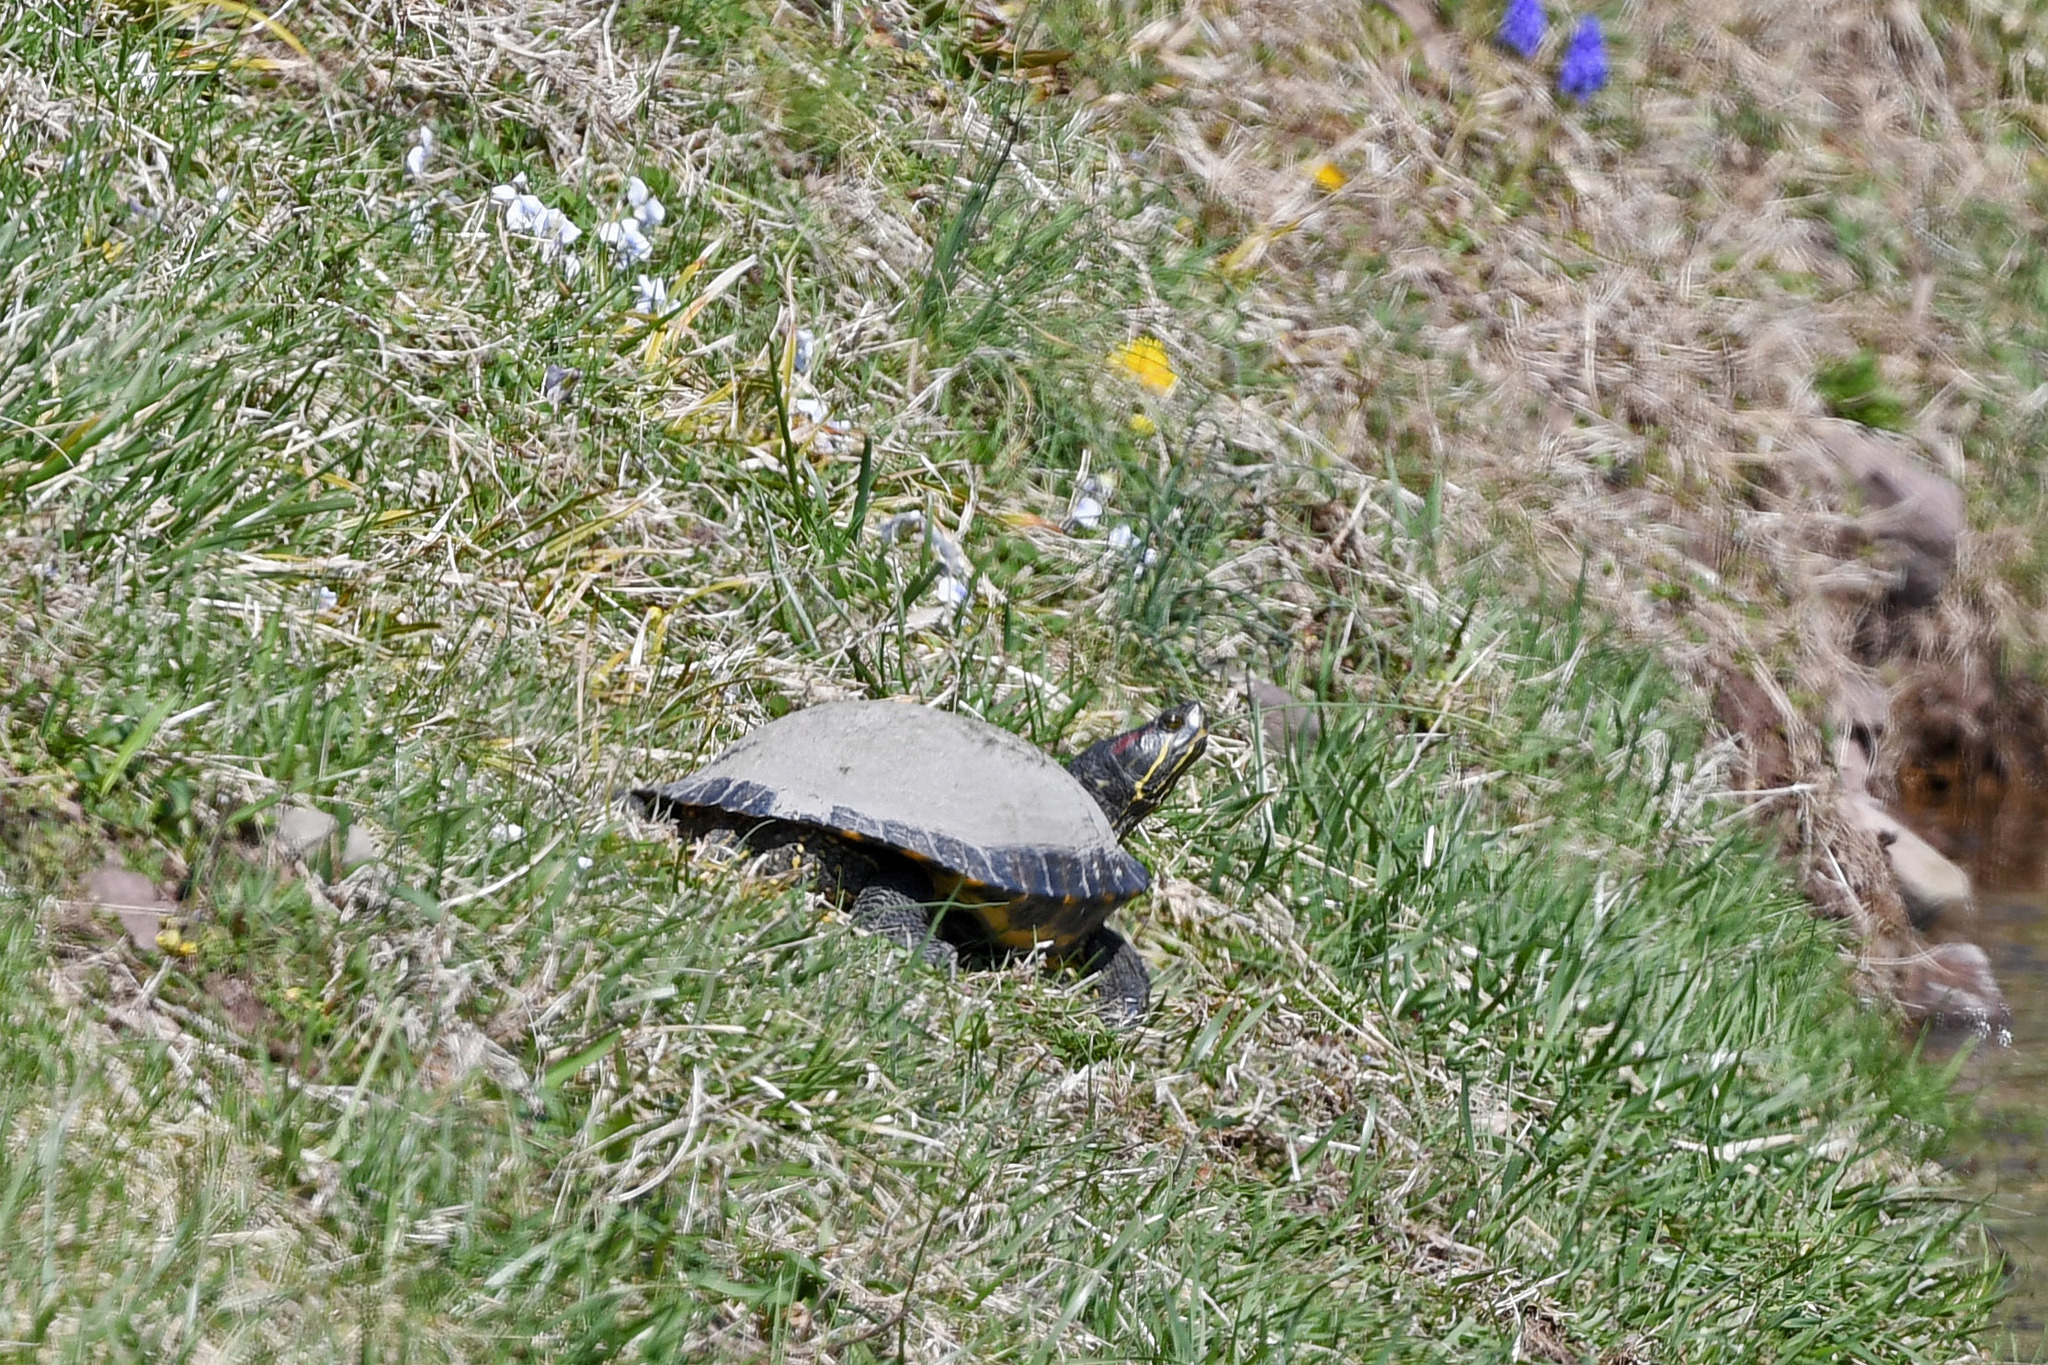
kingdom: Animalia
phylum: Chordata
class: Testudines
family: Emydidae
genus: Trachemys
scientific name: Trachemys scripta
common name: Slider
